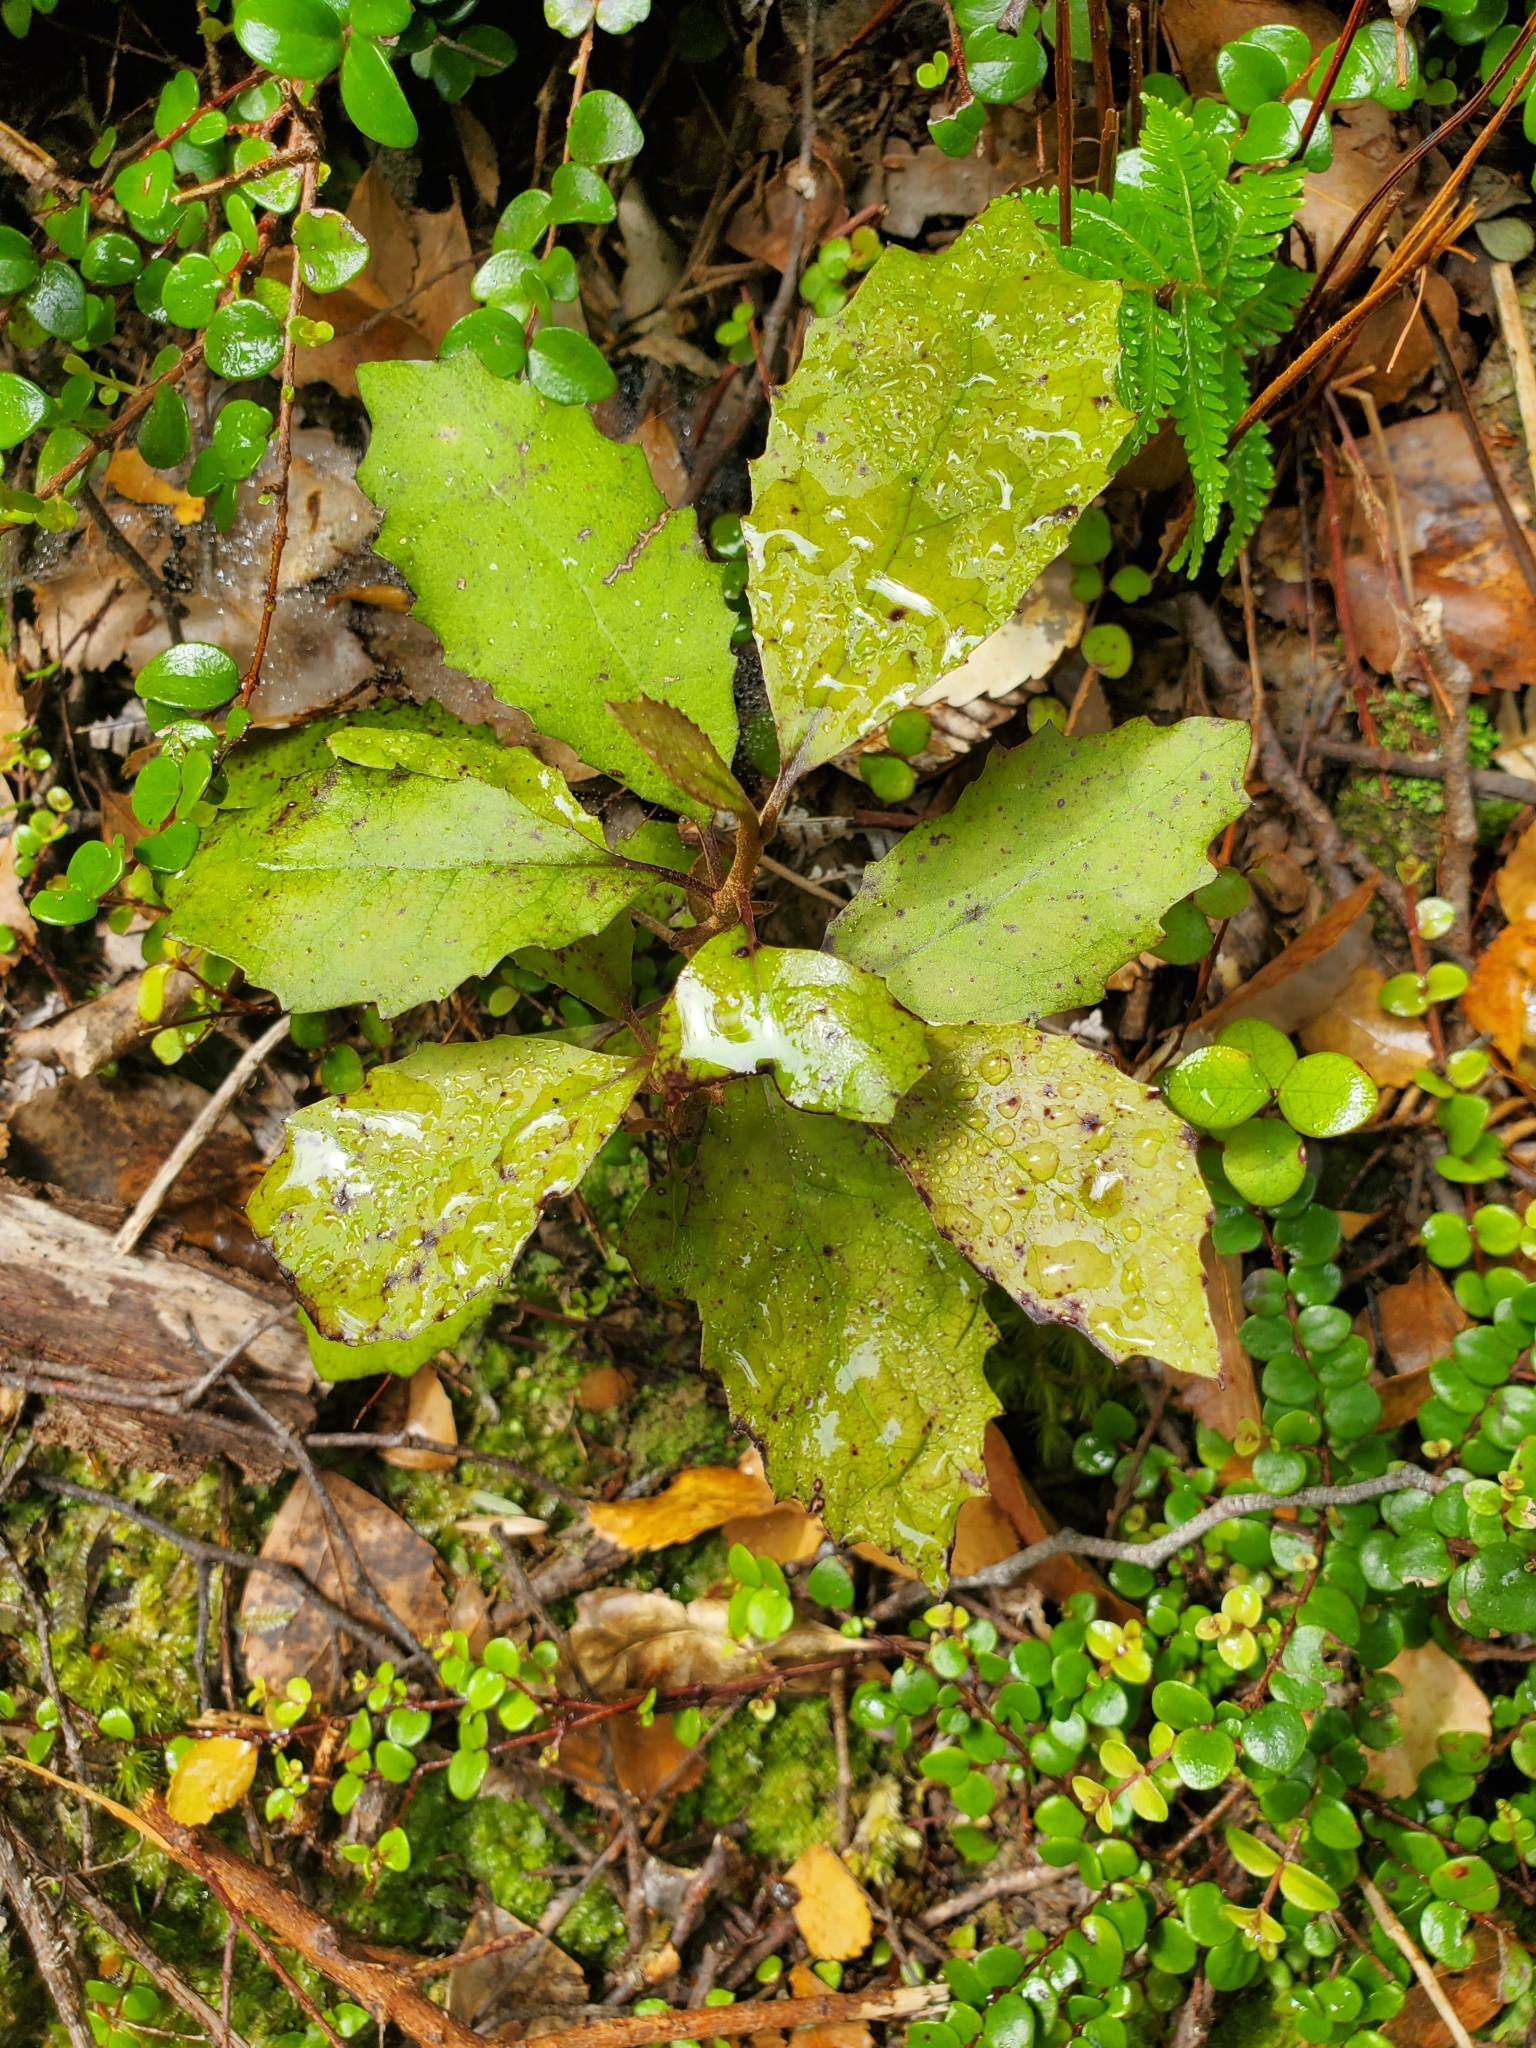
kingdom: Plantae
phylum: Tracheophyta
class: Magnoliopsida
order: Asterales
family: Asteraceae
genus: Olearia
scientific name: Olearia rani
